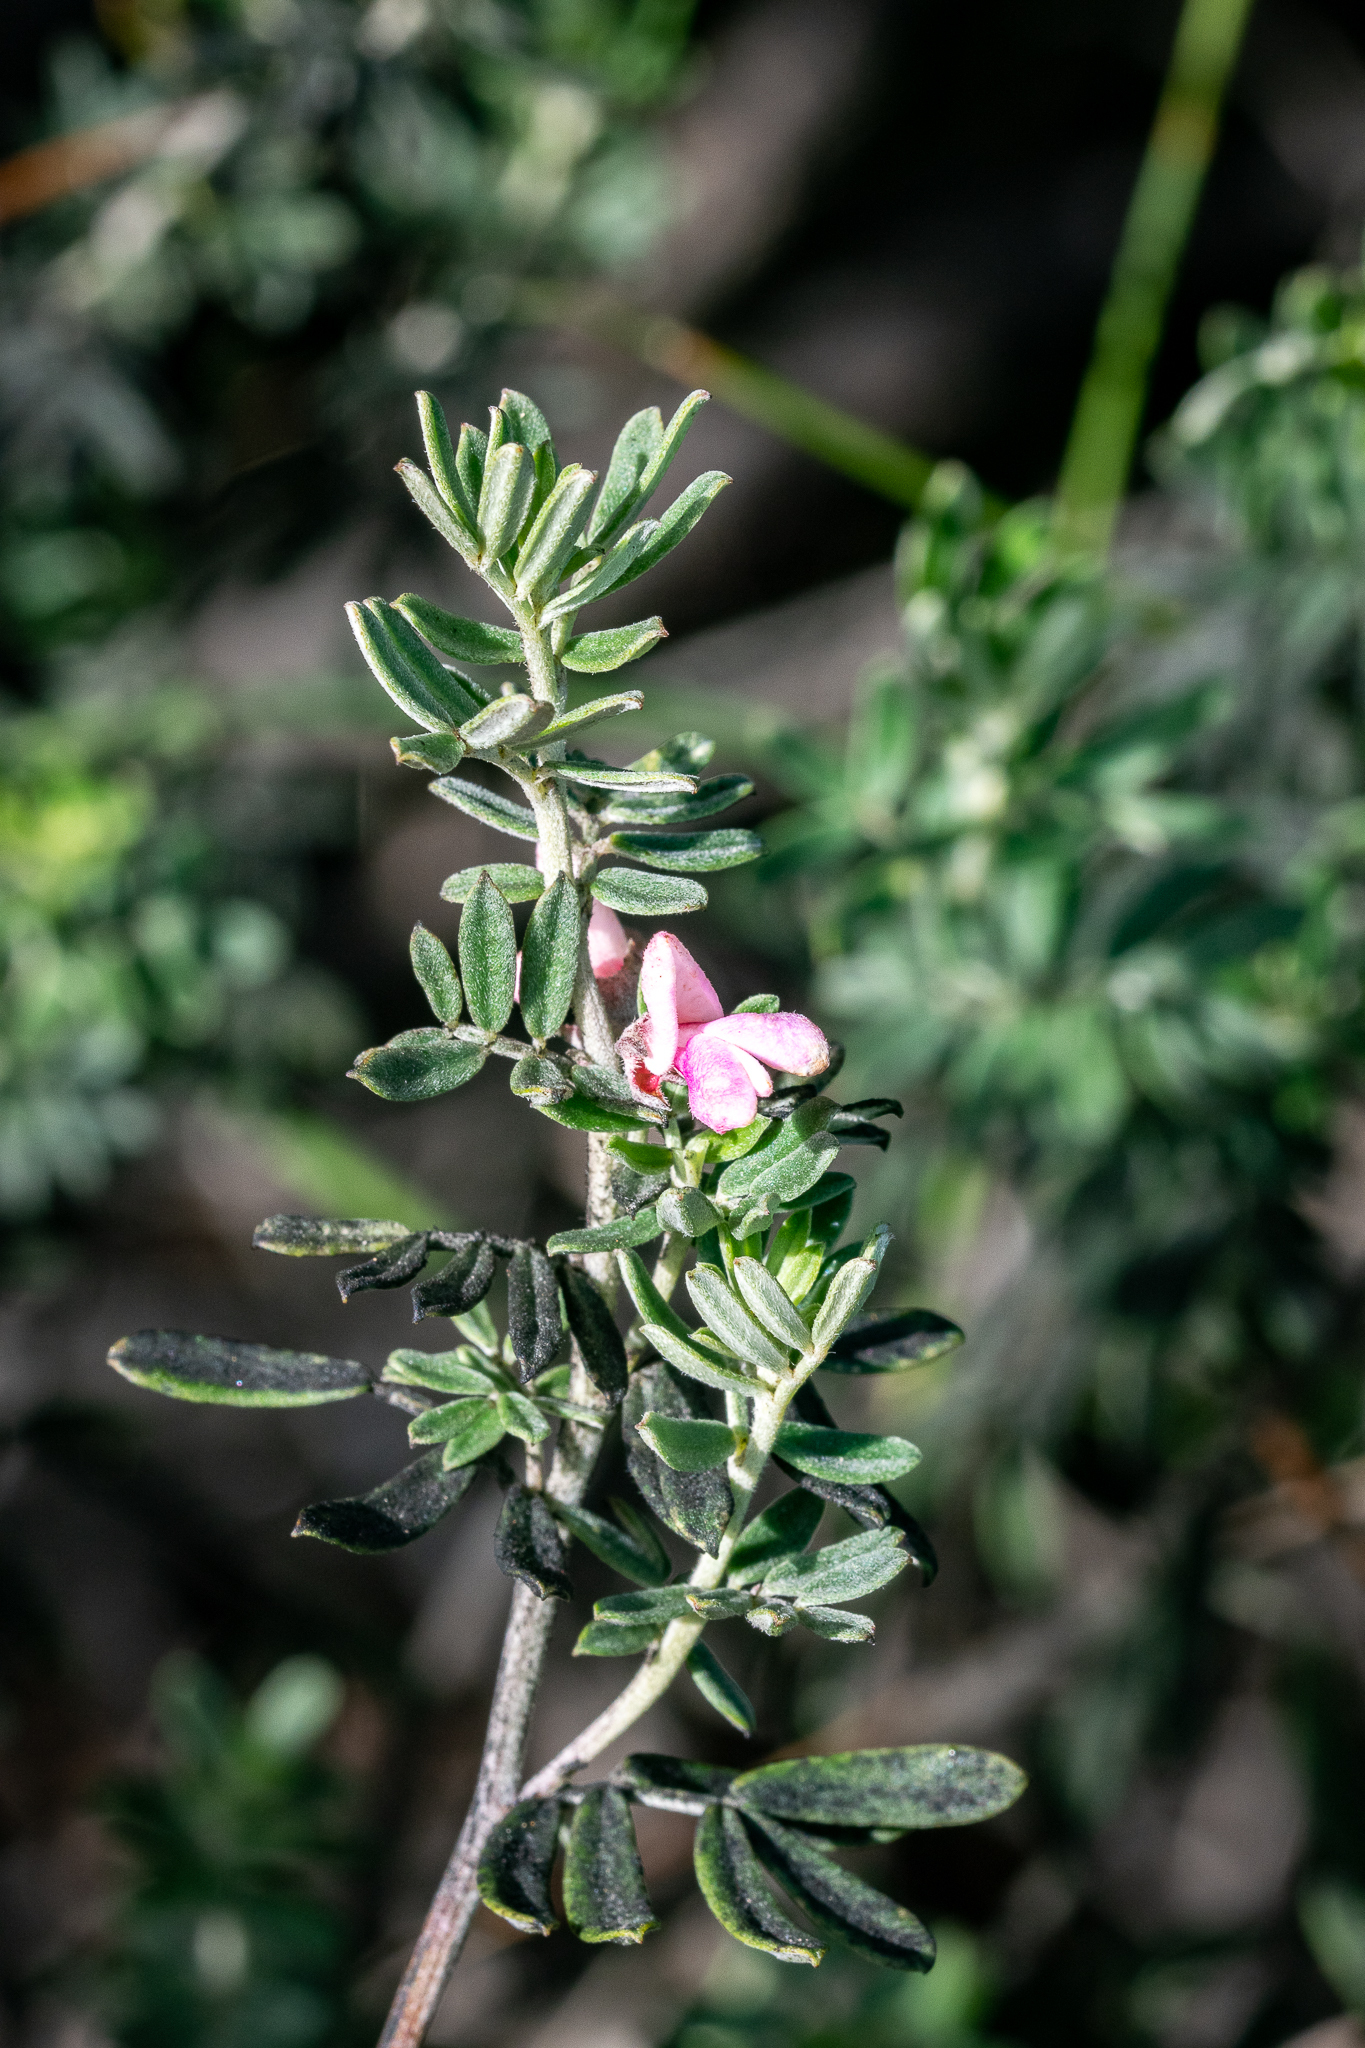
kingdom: Plantae
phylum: Tracheophyta
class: Magnoliopsida
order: Fabales
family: Fabaceae
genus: Indigofera
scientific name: Indigofera brachystachya
